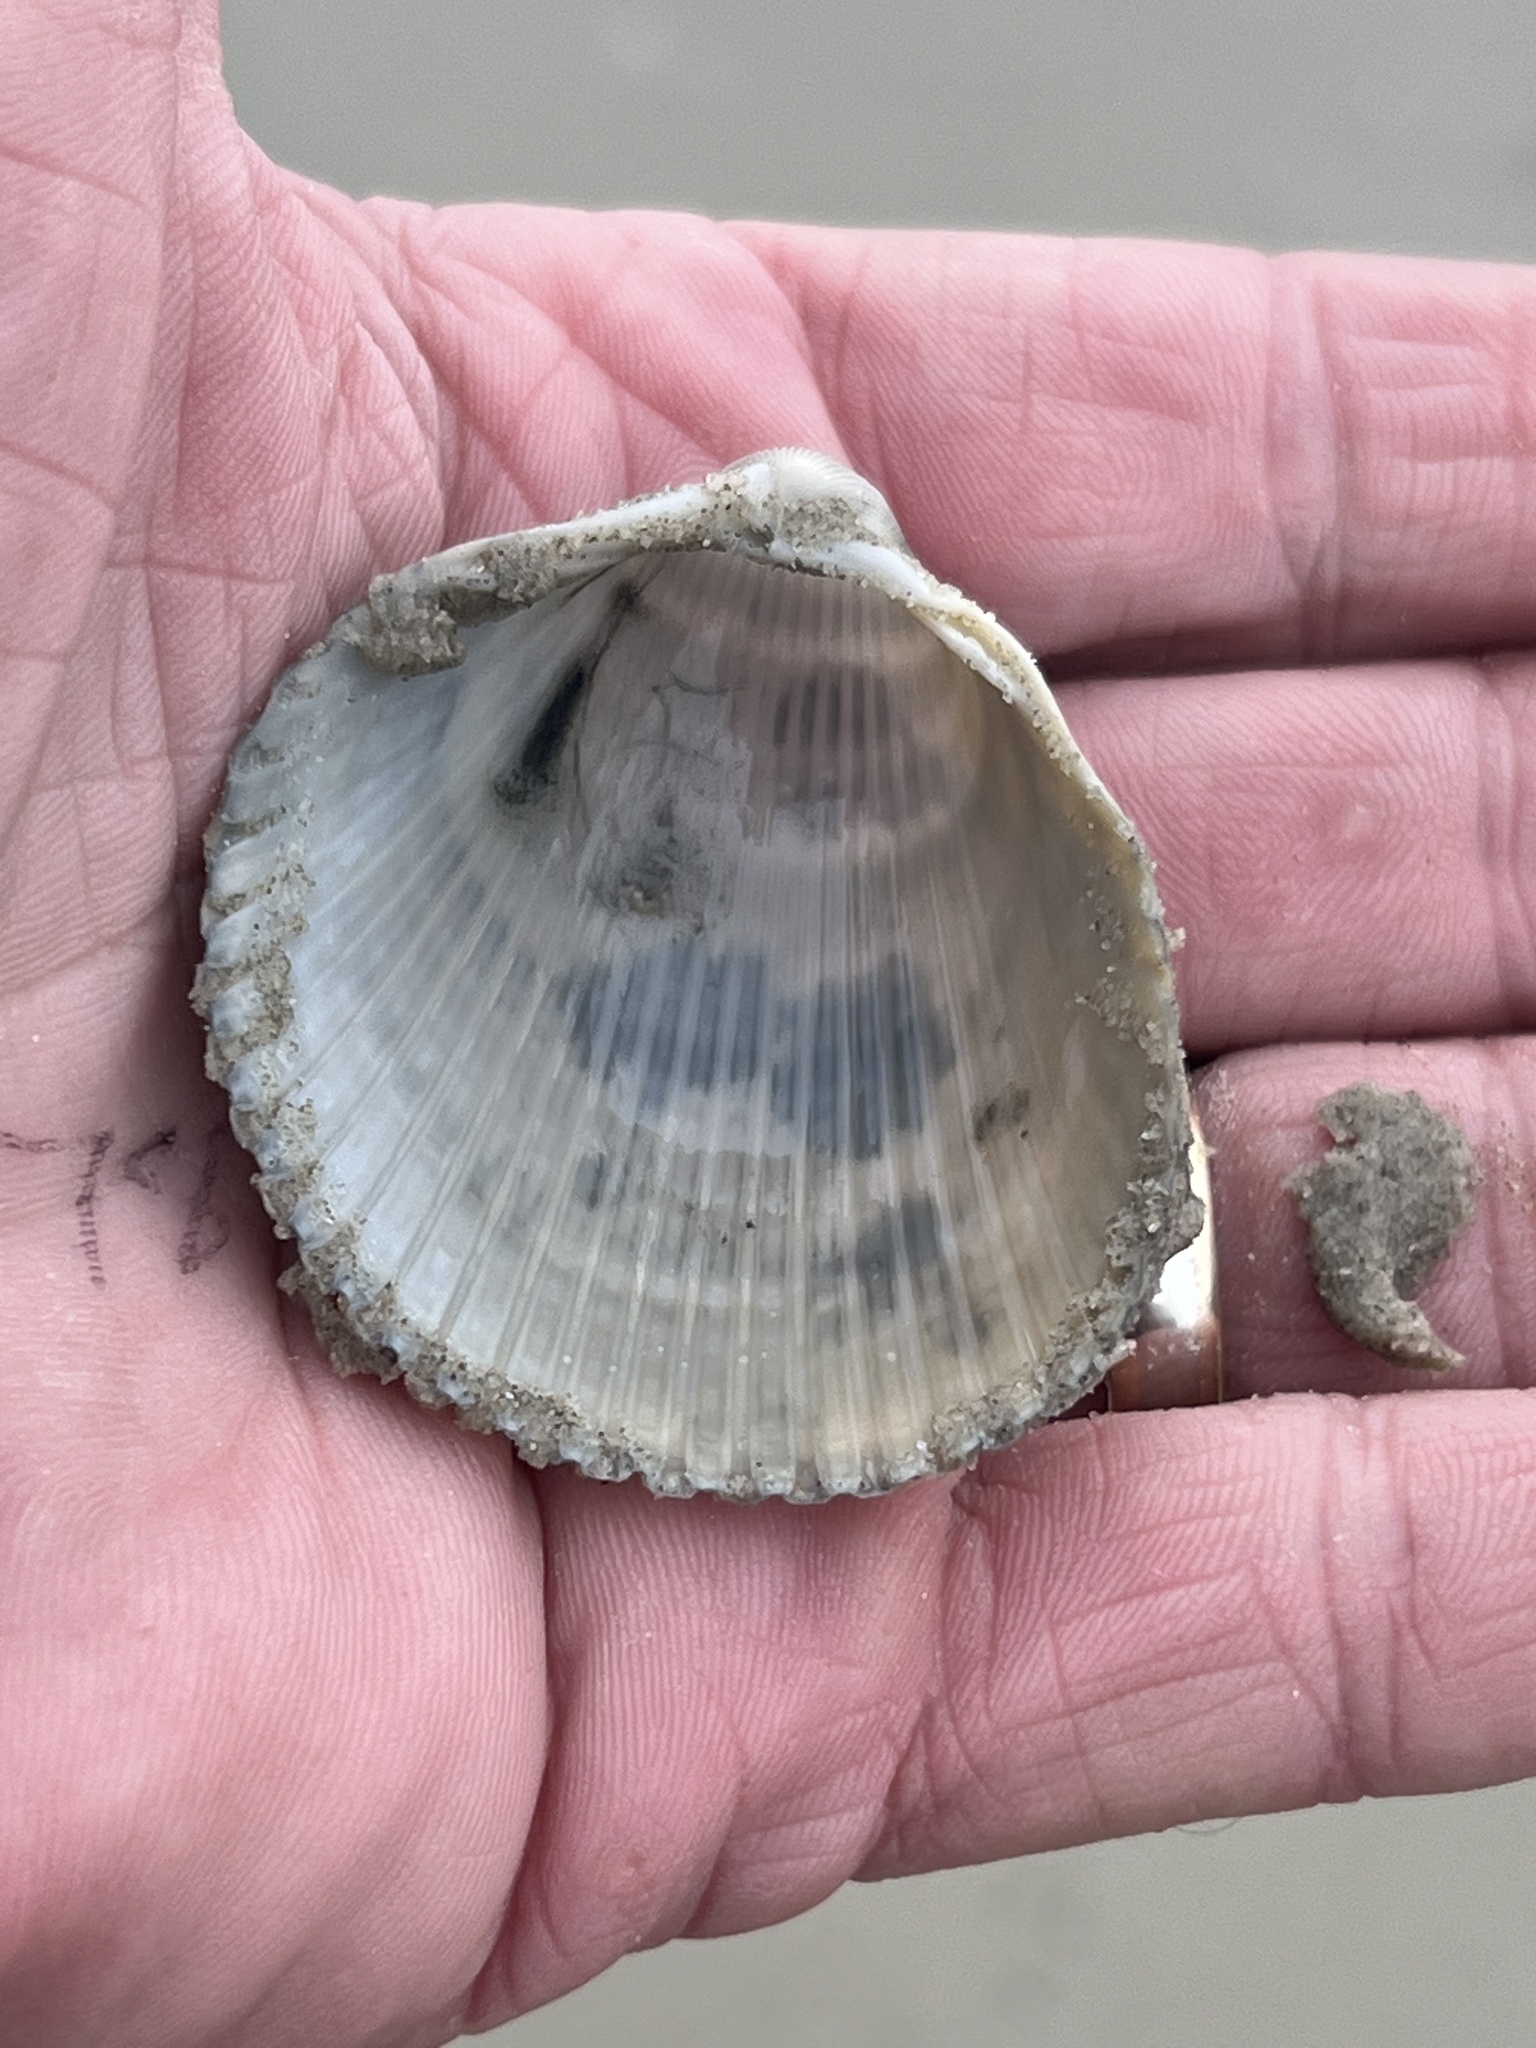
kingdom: Animalia
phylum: Mollusca
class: Bivalvia
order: Cardiida
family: Cardiidae
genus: Dinocardium
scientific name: Dinocardium robustum
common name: Atlantic giant cockle
